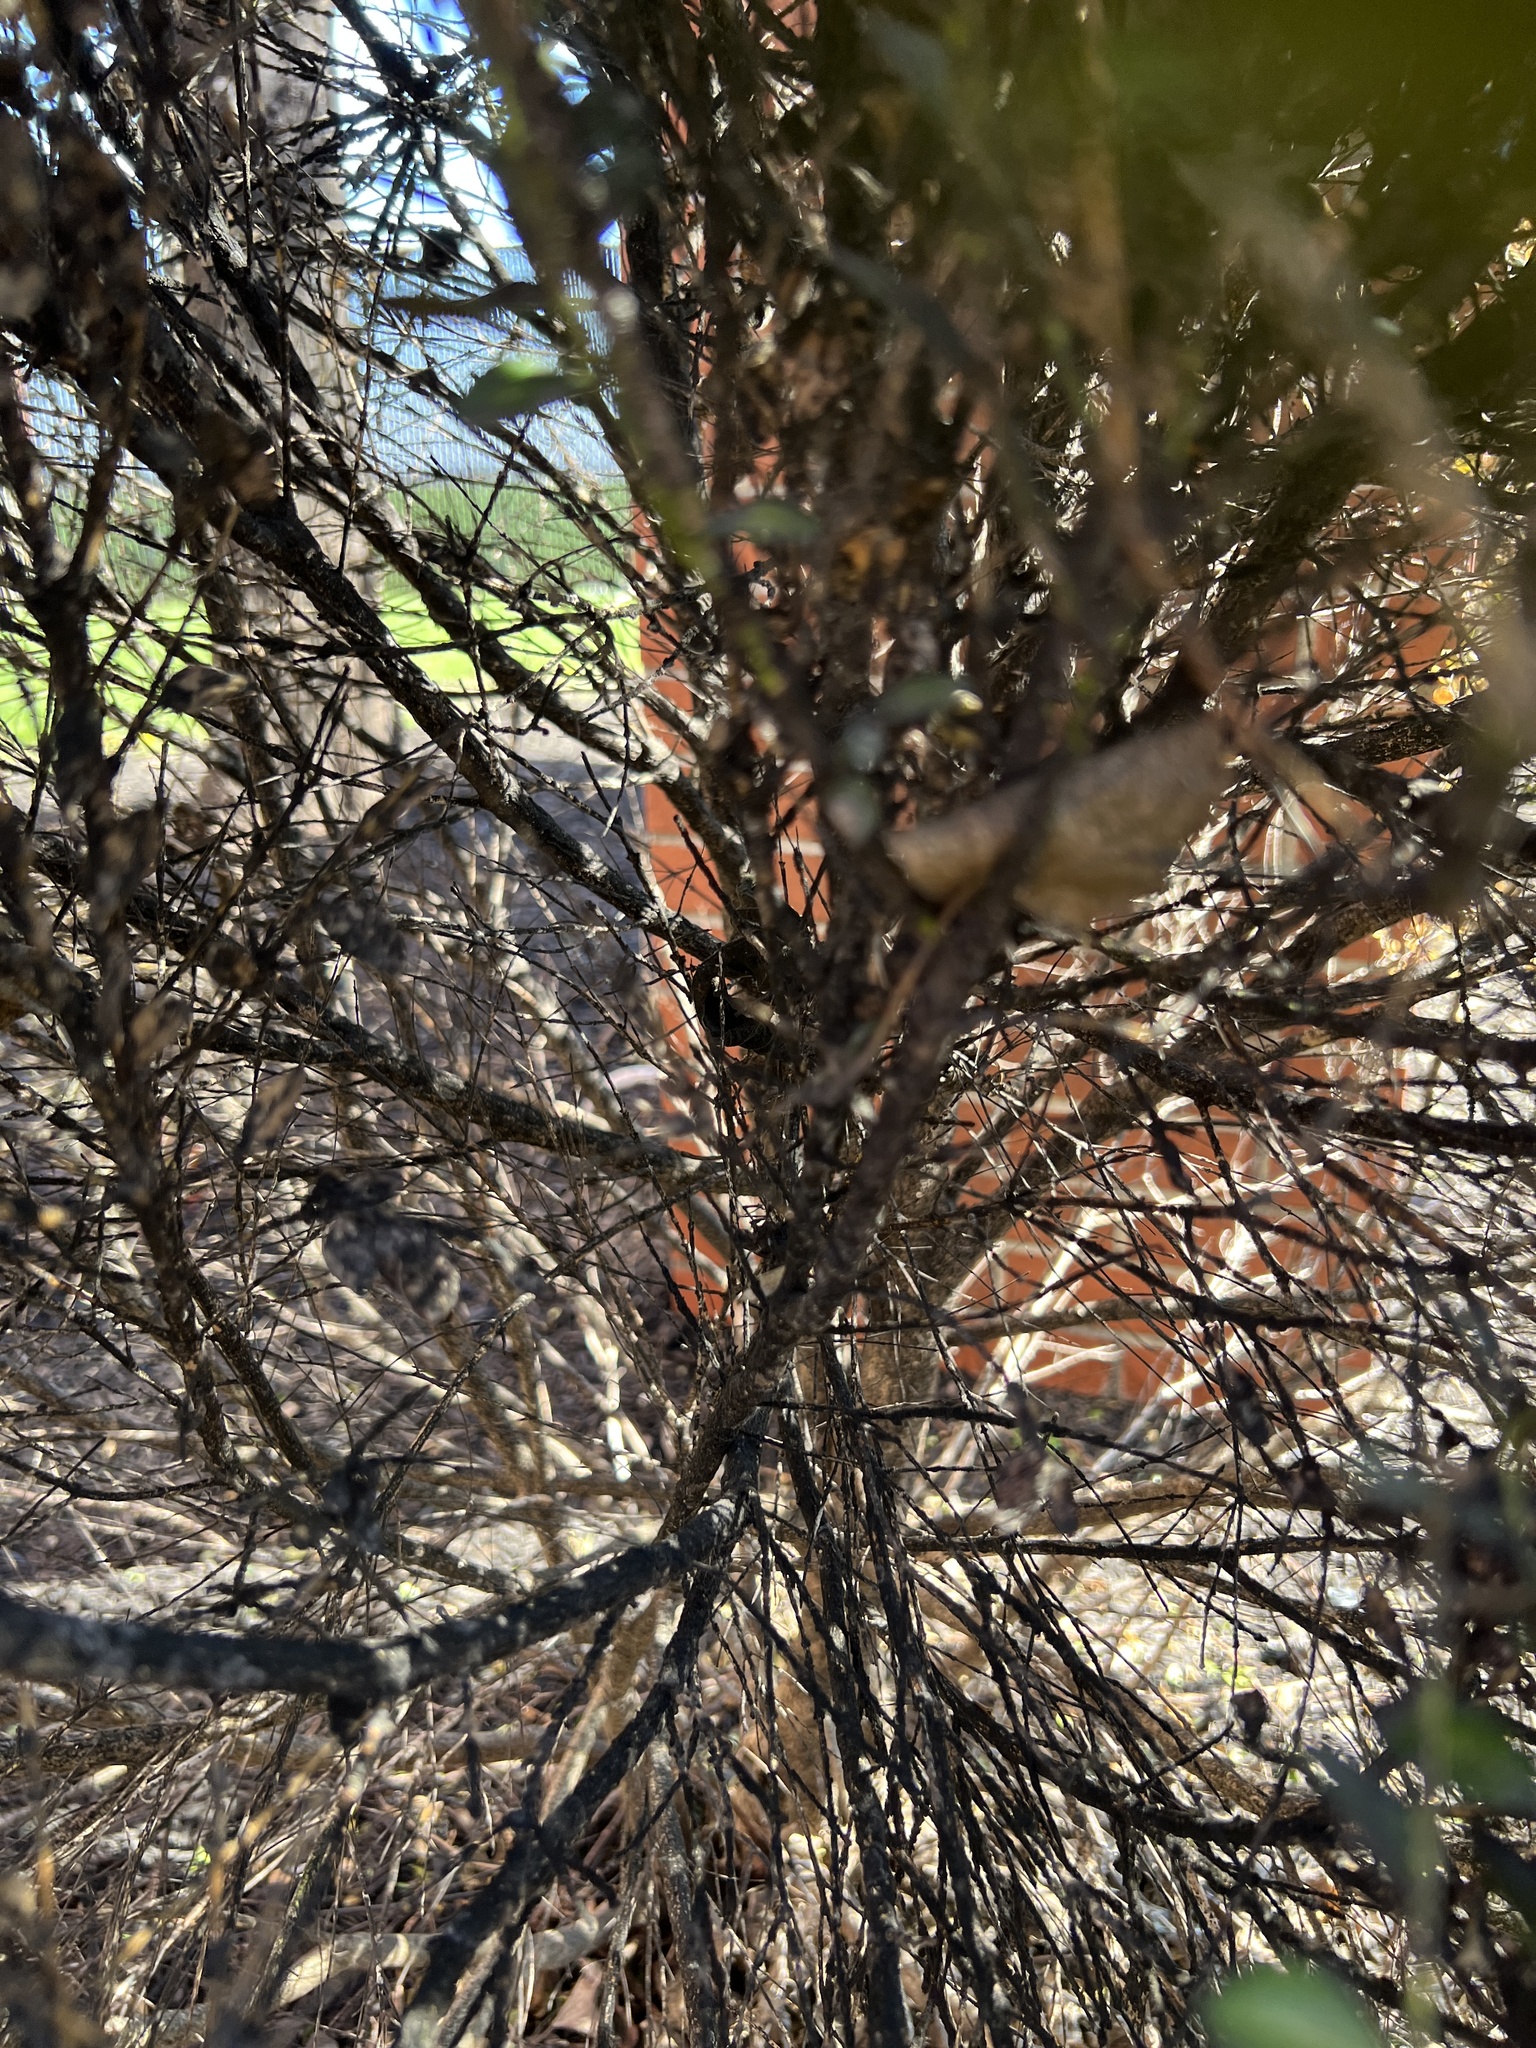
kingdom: Fungi
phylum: Ascomycota
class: Dothideomycetes
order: Capnodiales
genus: Baudoinia
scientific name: Baudoinia compniacensis
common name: Angel's share
